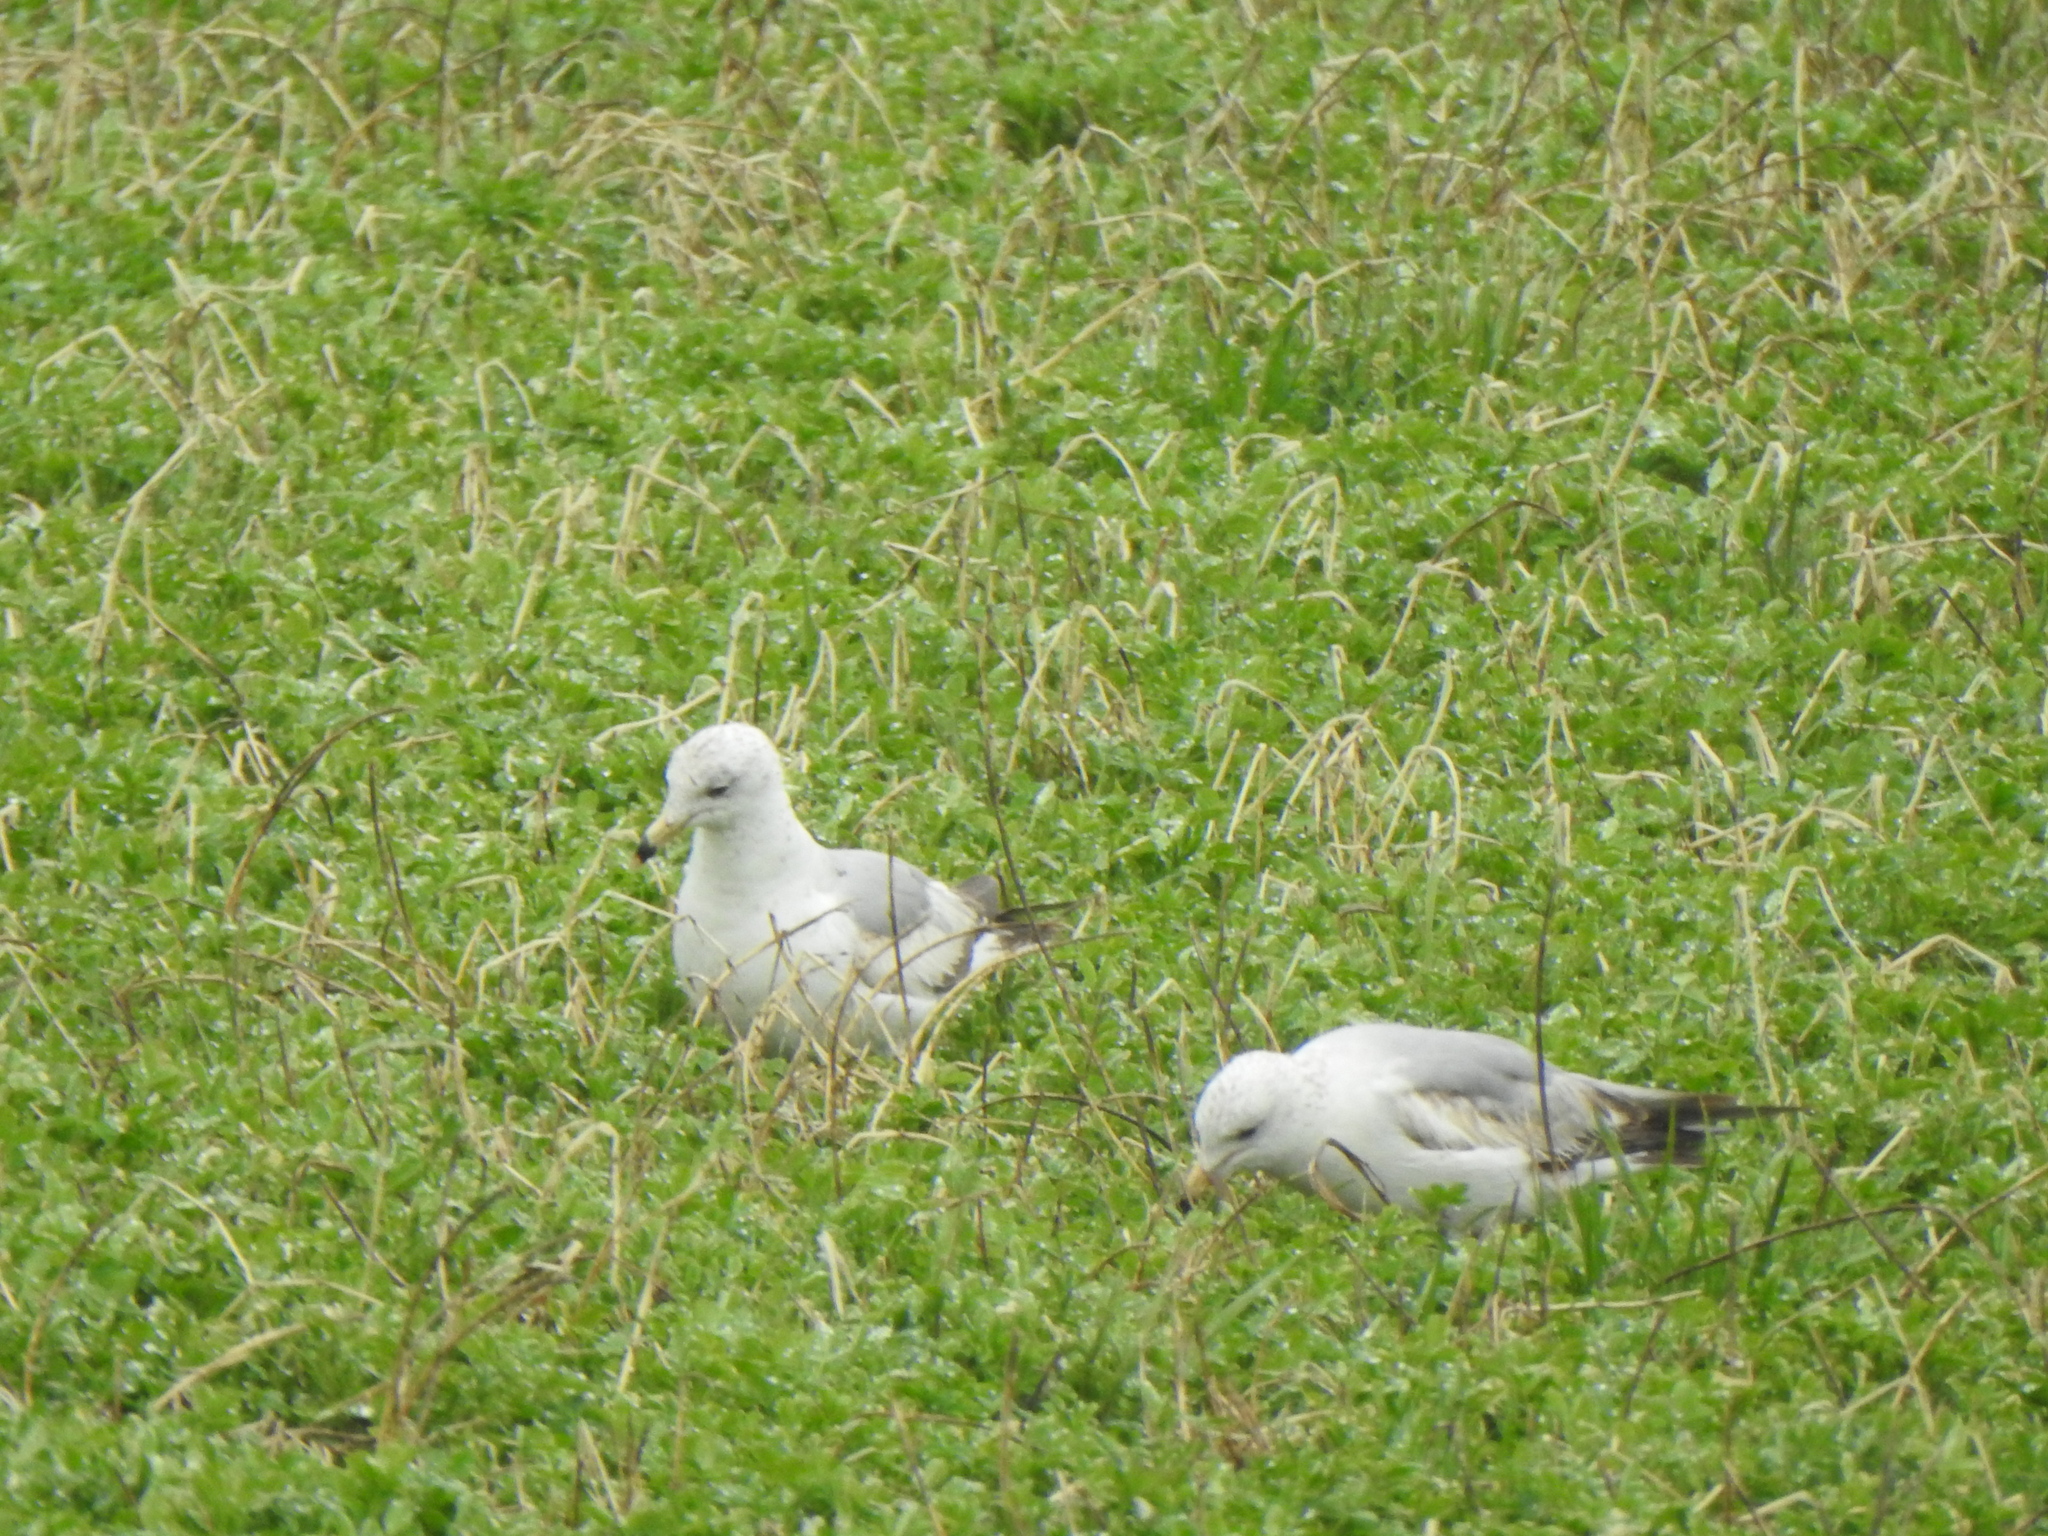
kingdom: Animalia
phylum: Chordata
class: Aves
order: Charadriiformes
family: Laridae
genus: Larus
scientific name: Larus delawarensis
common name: Ring-billed gull
